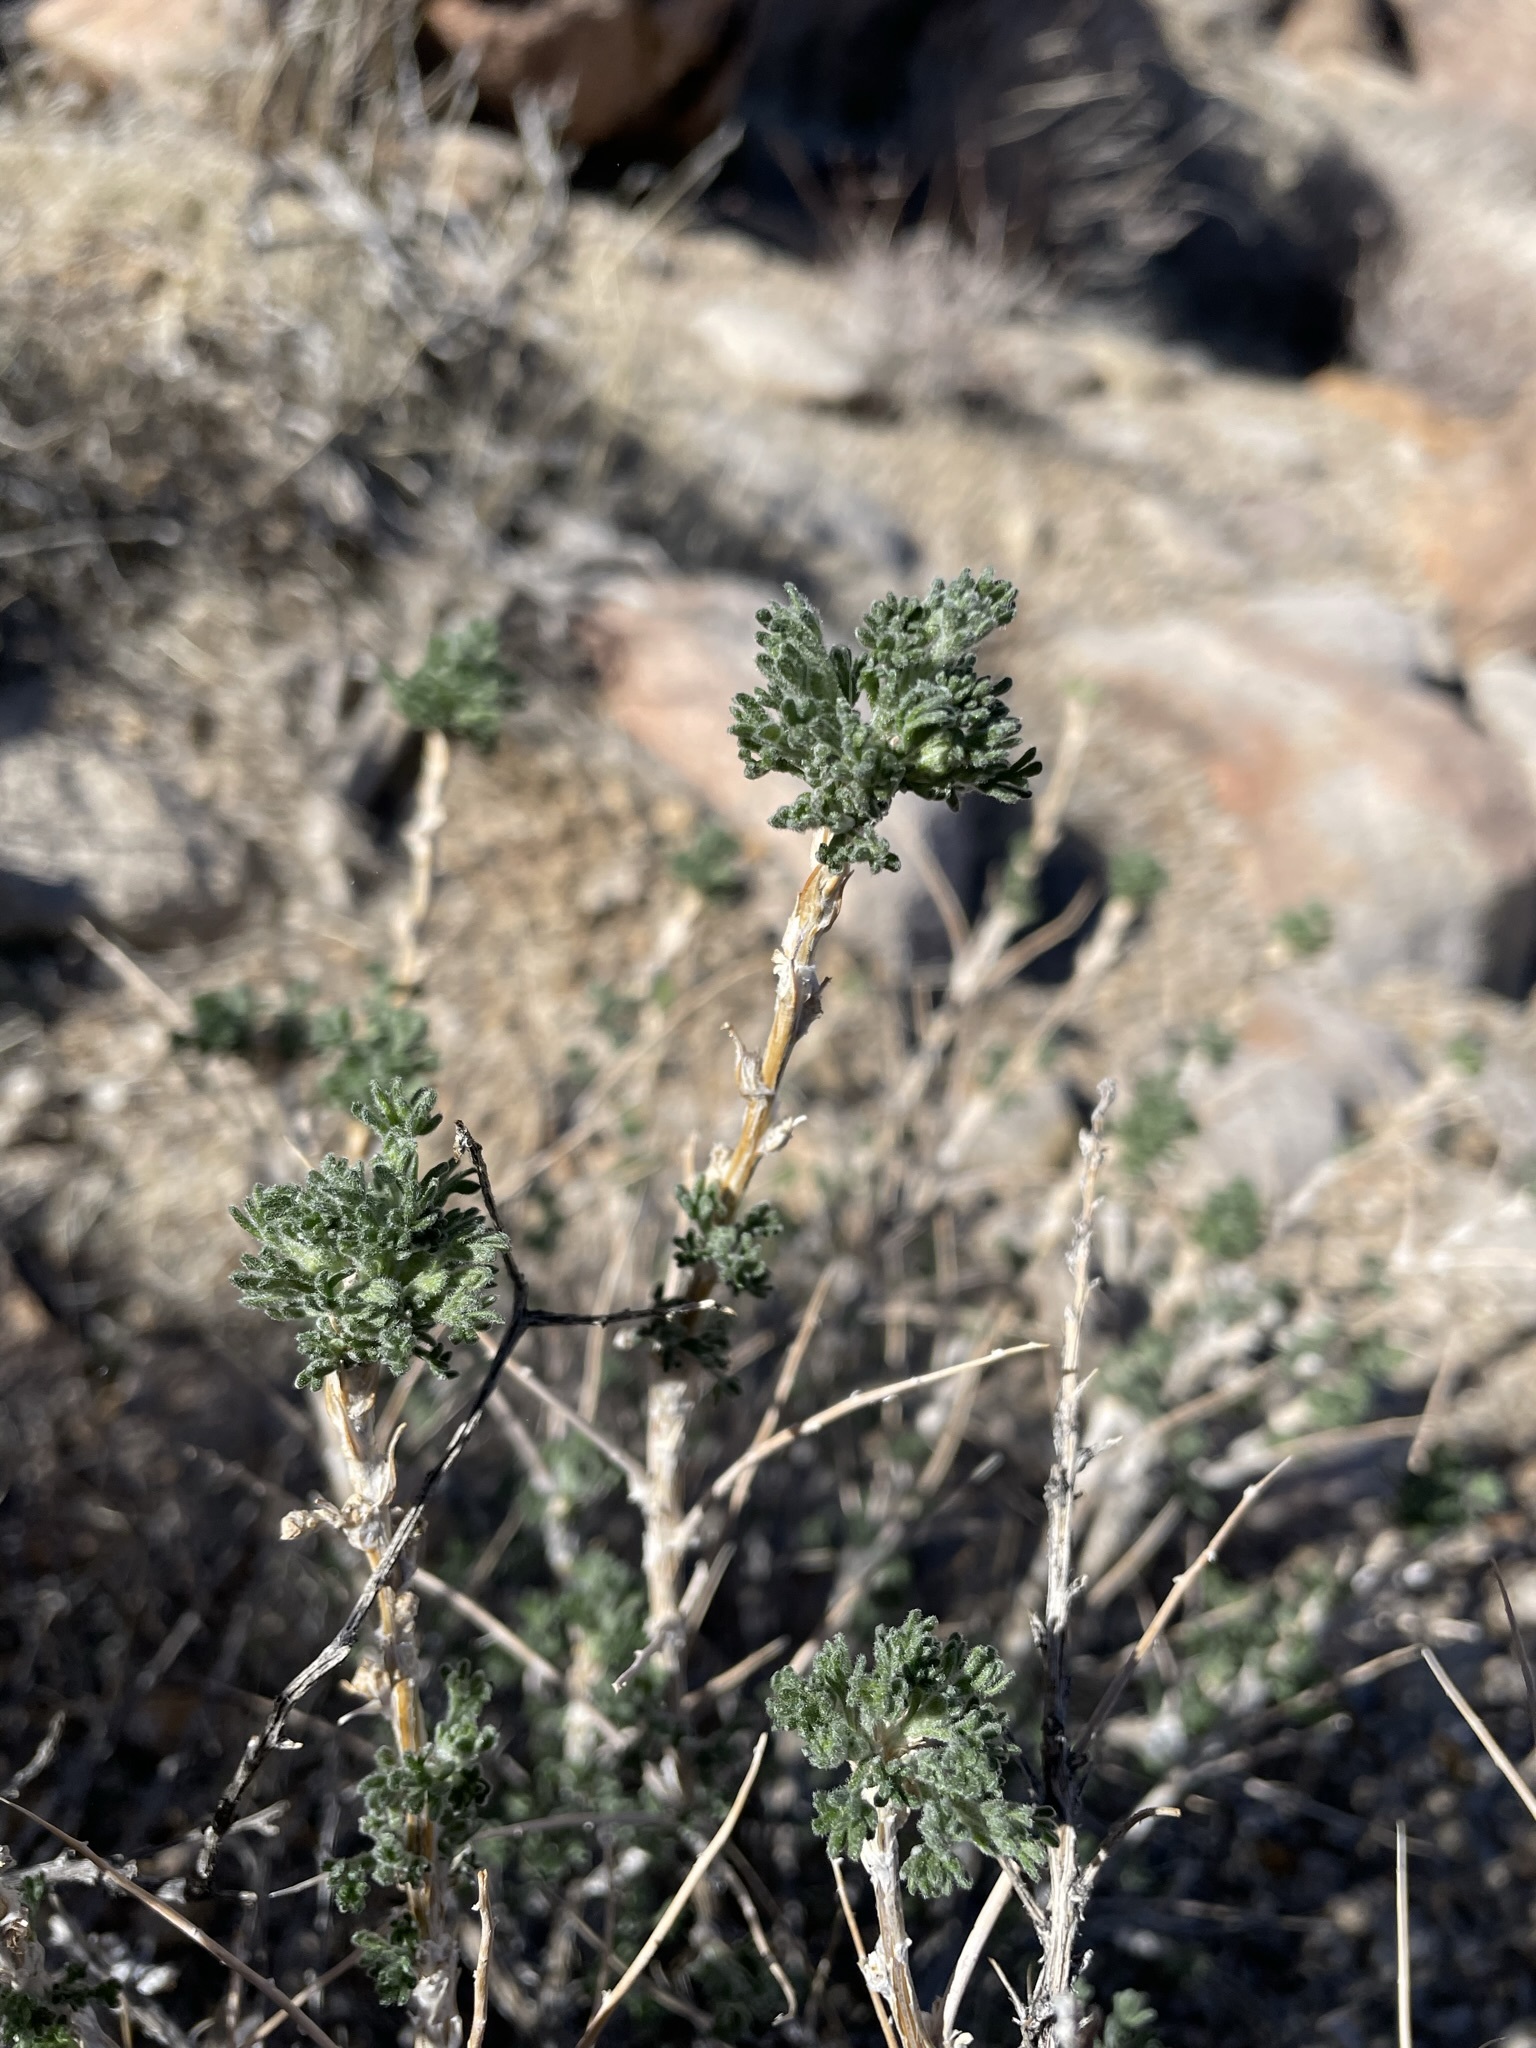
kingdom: Plantae
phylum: Tracheophyta
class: Magnoliopsida
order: Asterales
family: Asteraceae
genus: Artemisia
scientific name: Artemisia spinescens
